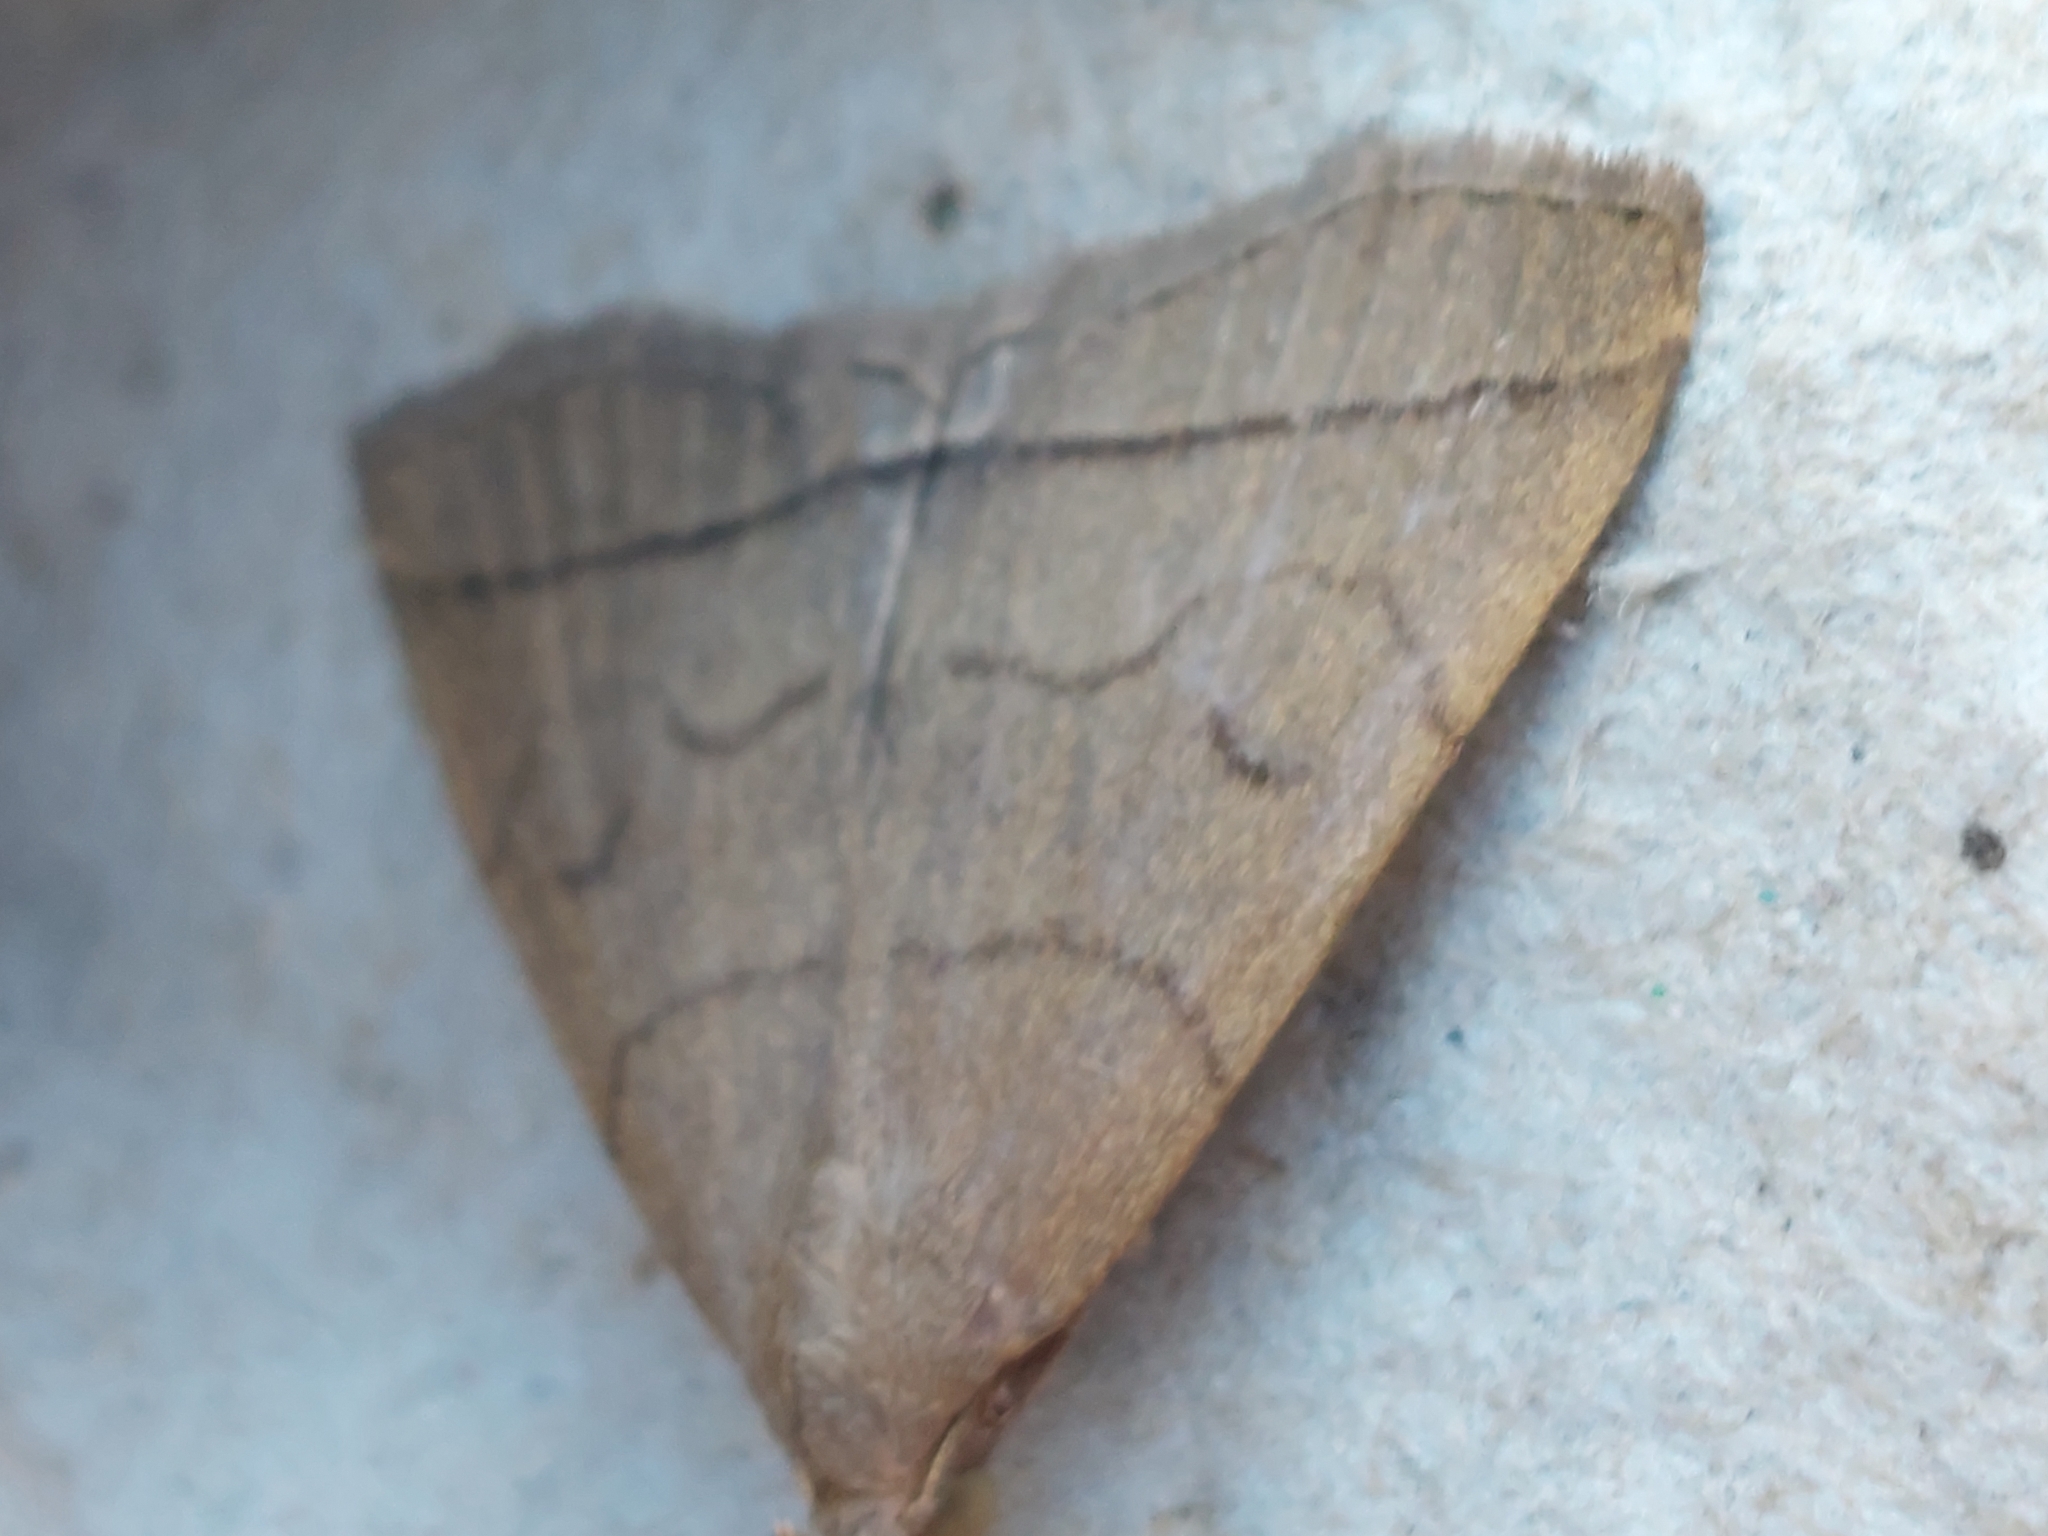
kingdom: Animalia
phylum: Arthropoda
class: Insecta
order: Lepidoptera
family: Erebidae
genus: Herminia
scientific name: Herminia tarsipennalis
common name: Fan-foot
